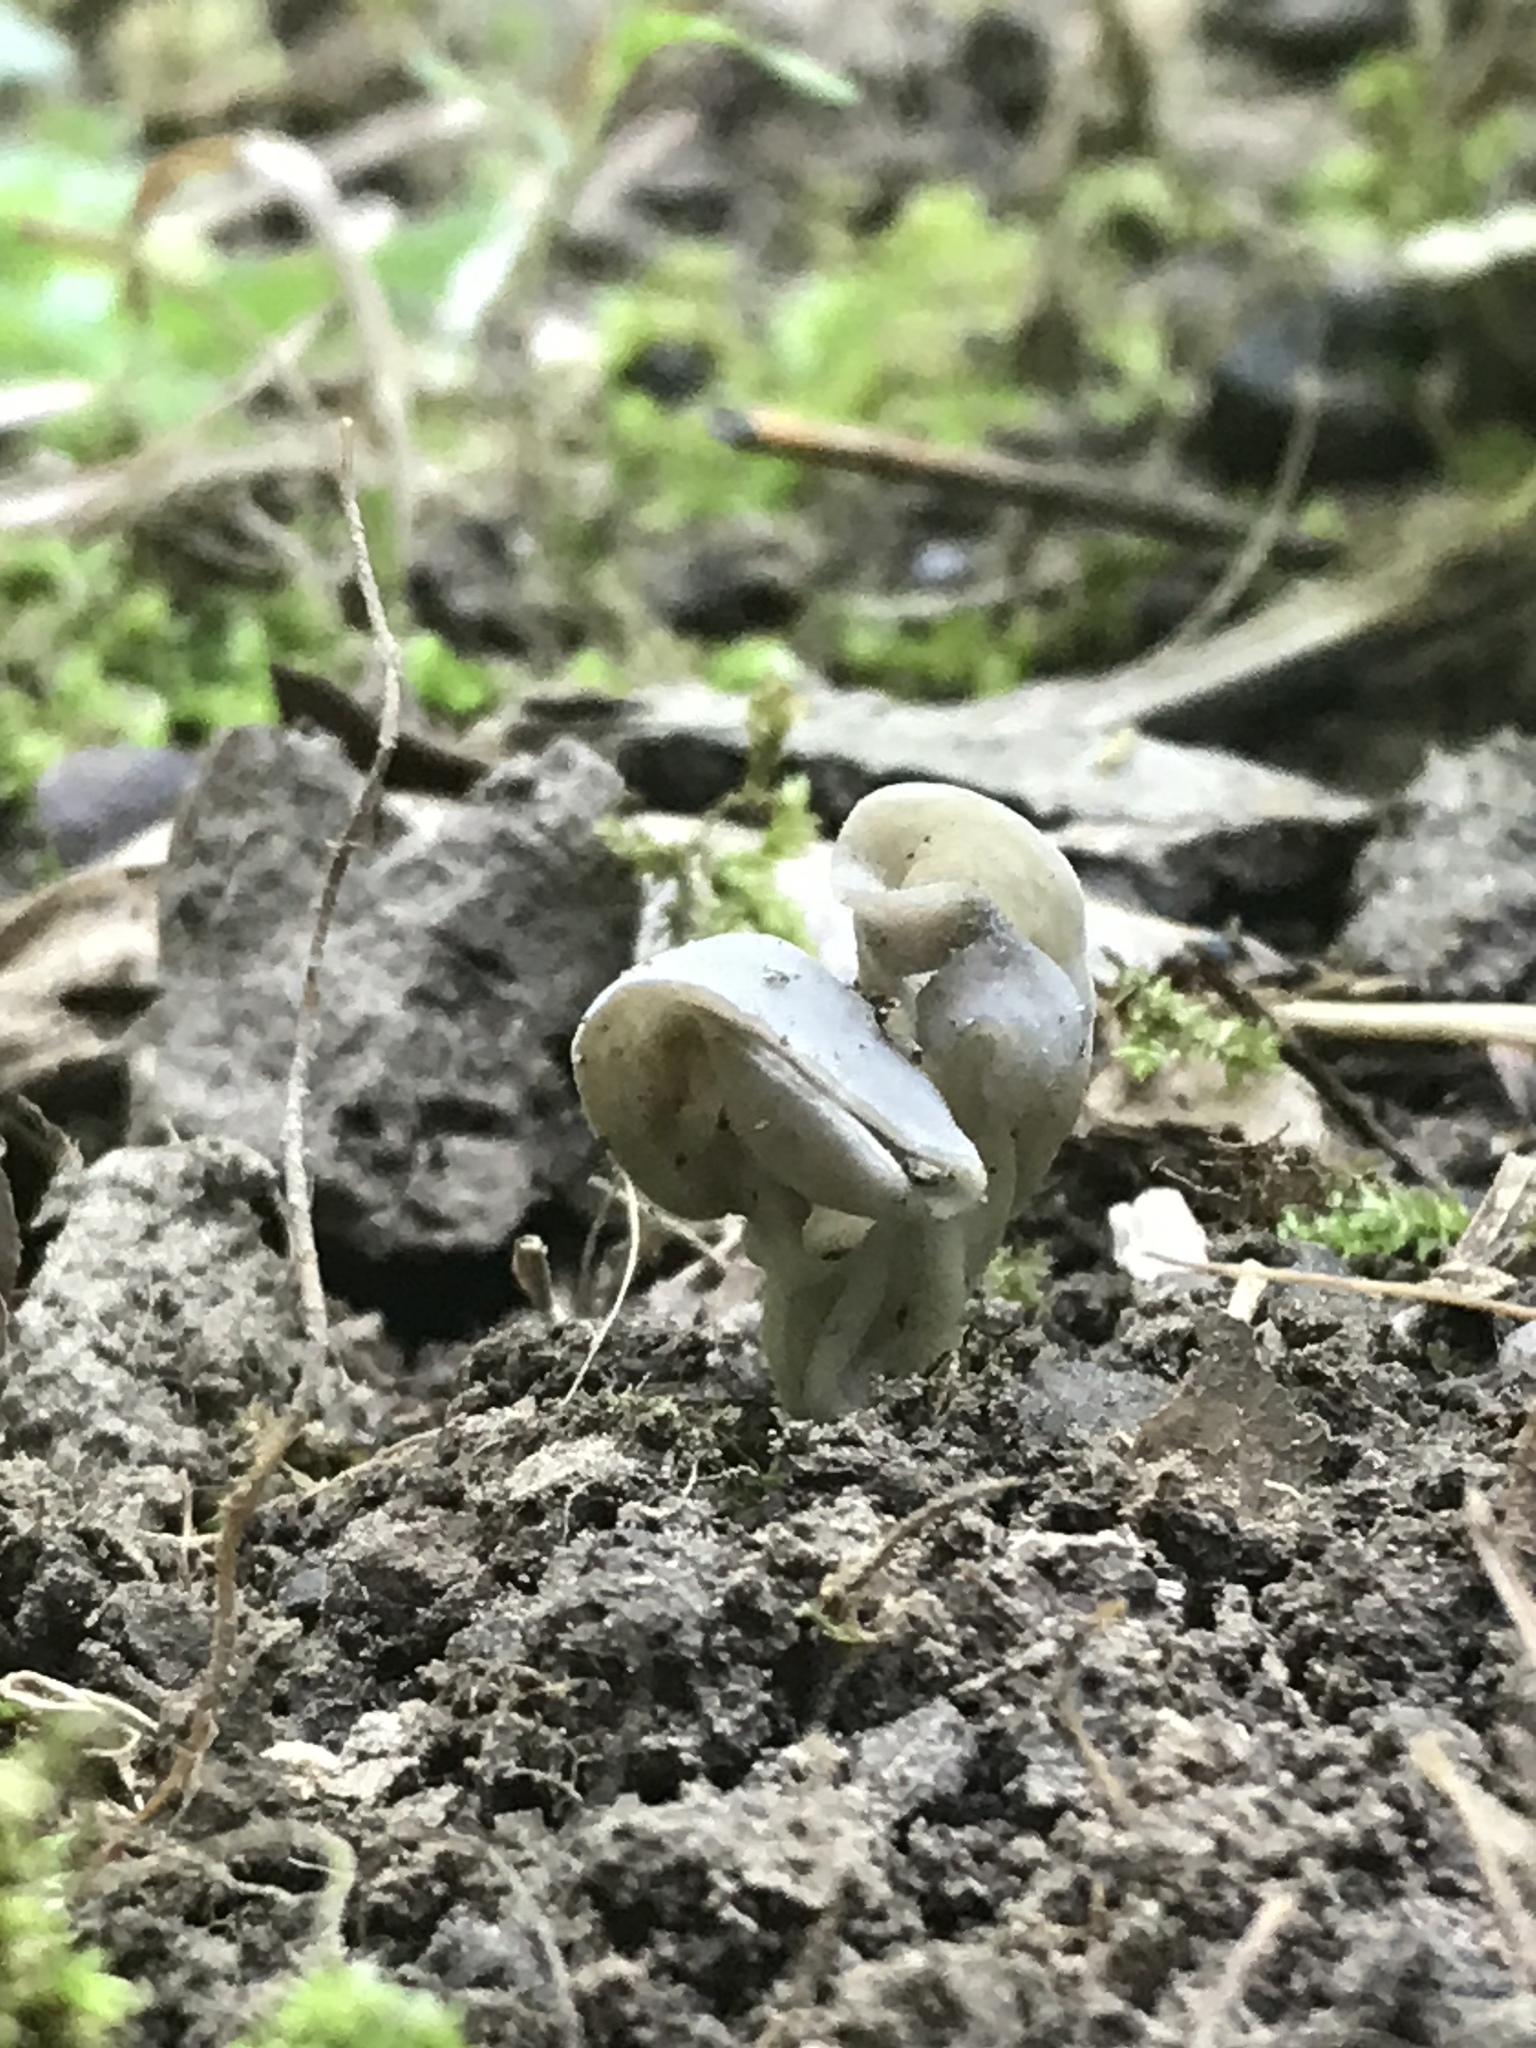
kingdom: Fungi
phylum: Ascomycota
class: Pezizomycetes
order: Pezizales
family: Helvellaceae
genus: Helvella
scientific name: Helvella compressa
